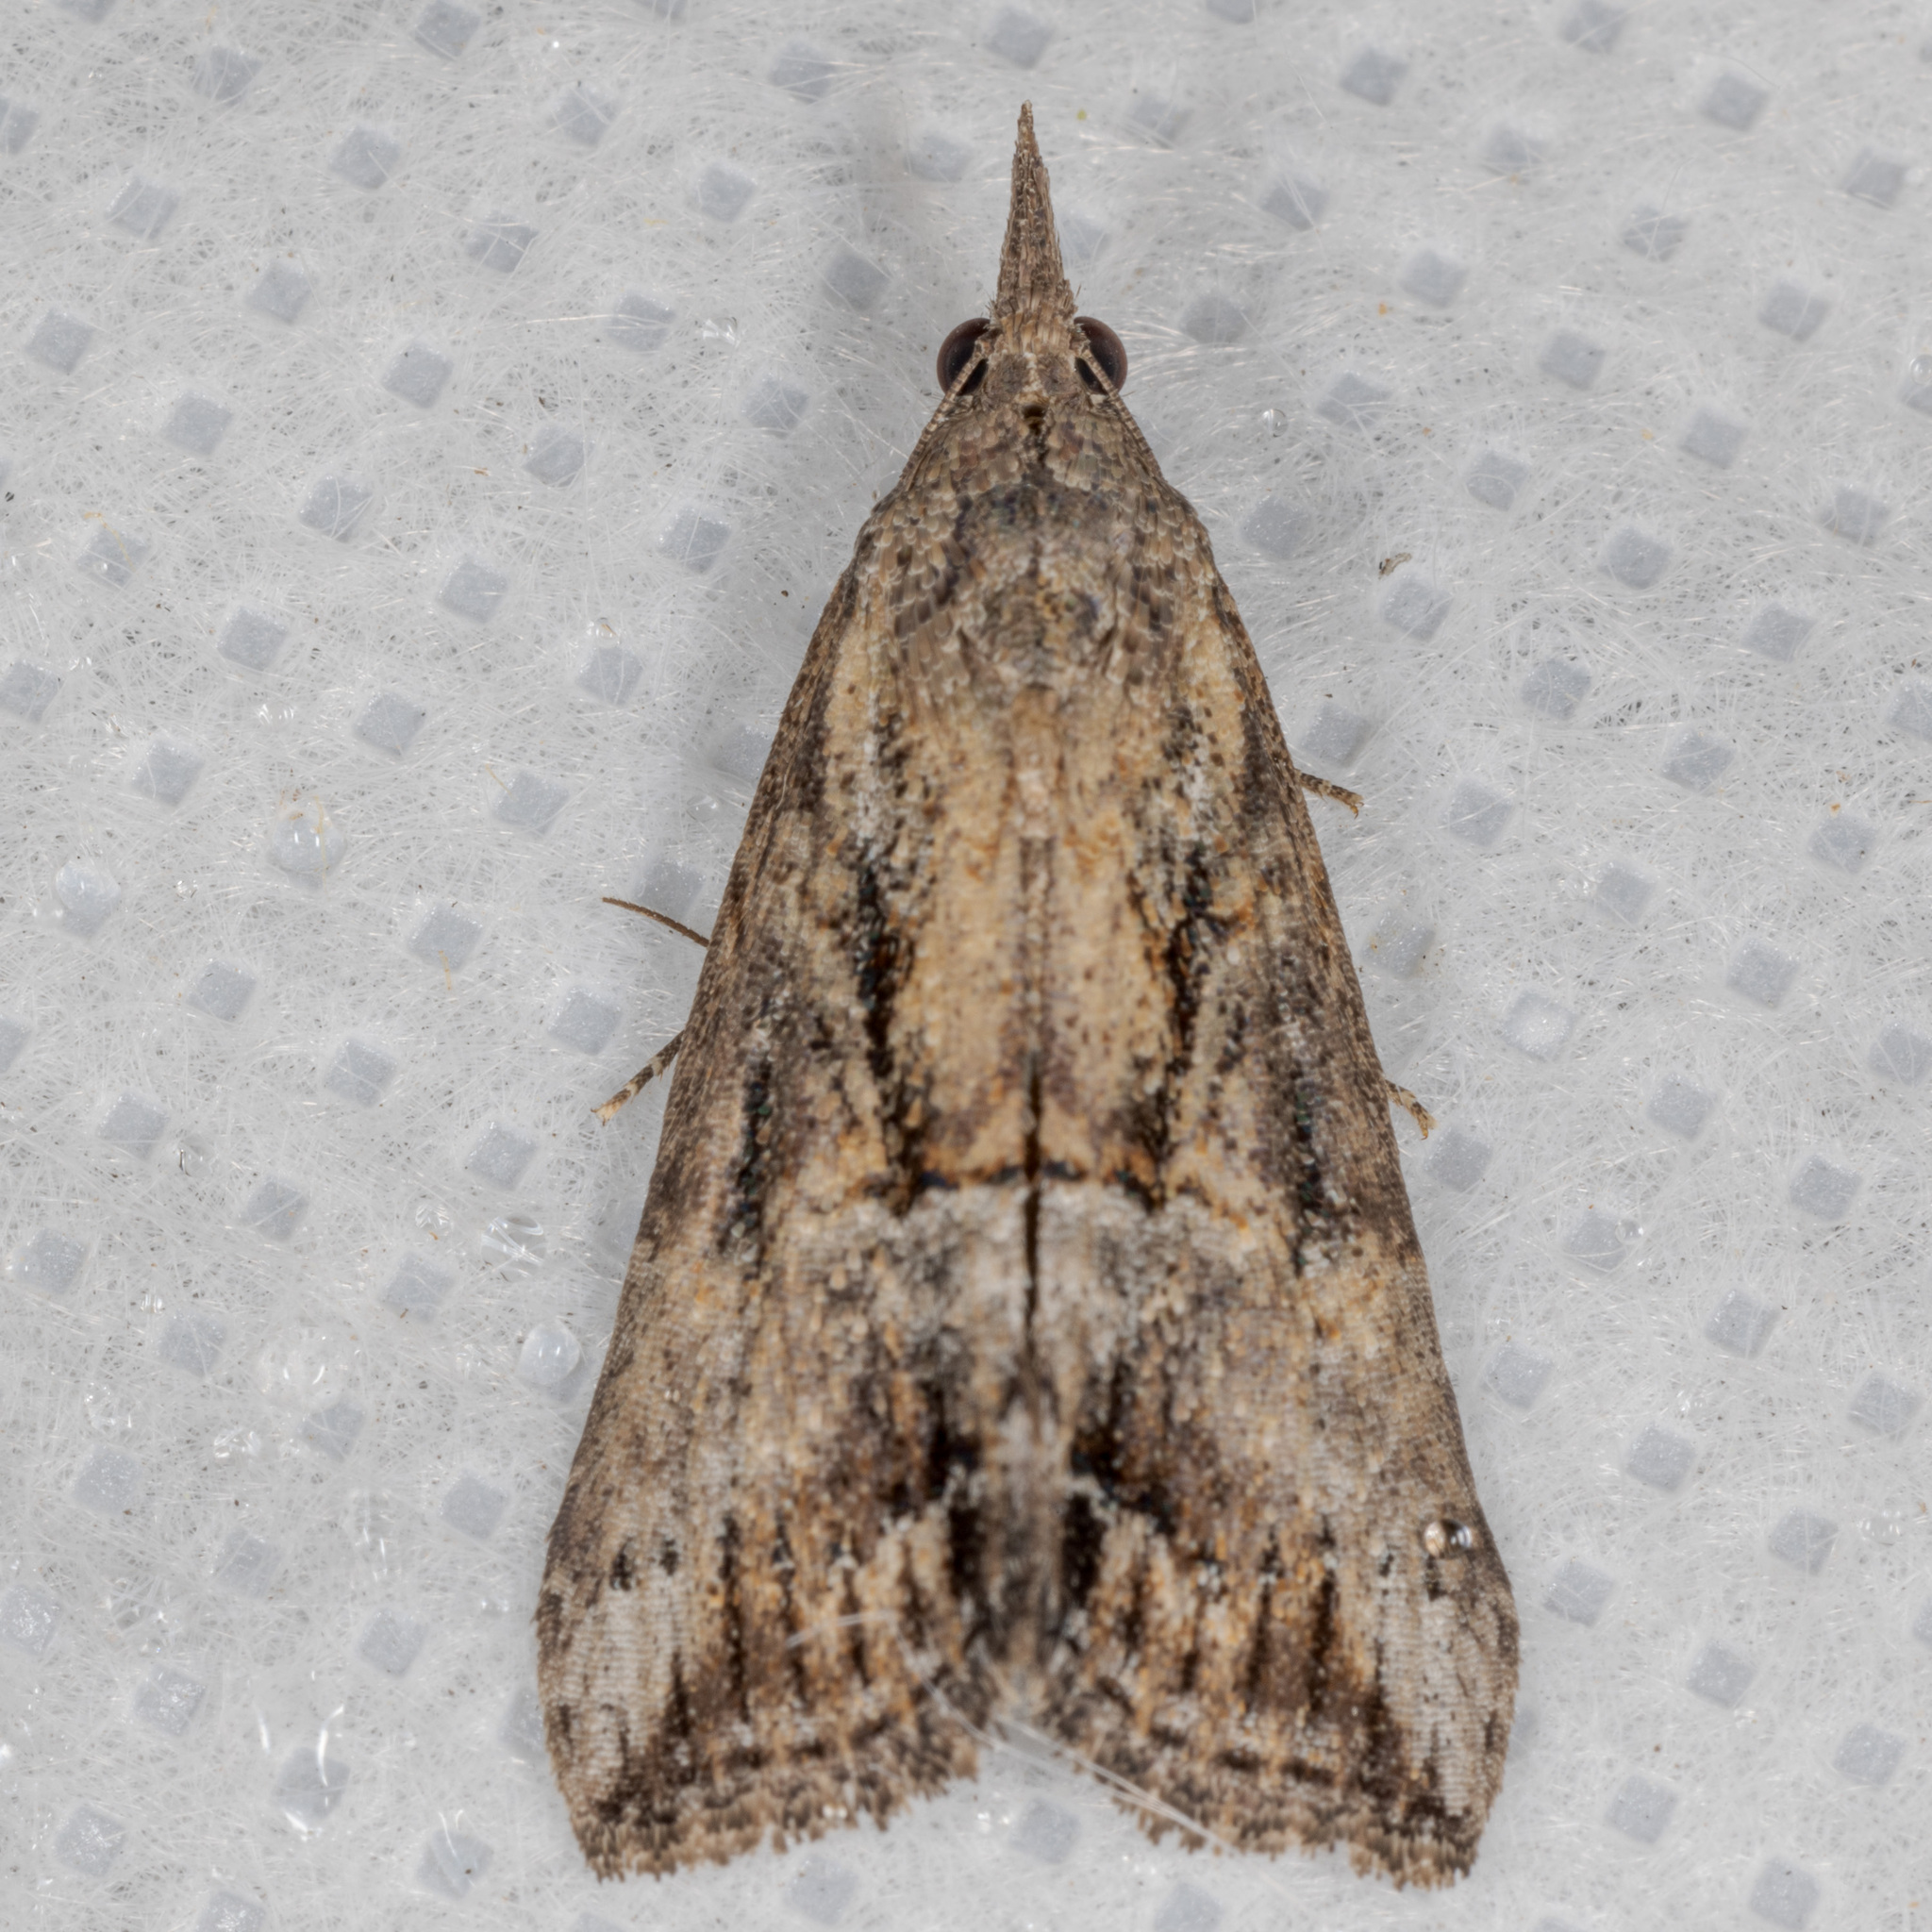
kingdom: Animalia
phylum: Arthropoda
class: Insecta
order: Lepidoptera
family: Erebidae
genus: Hypena
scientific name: Hypena scabra
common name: Green cloverworm
